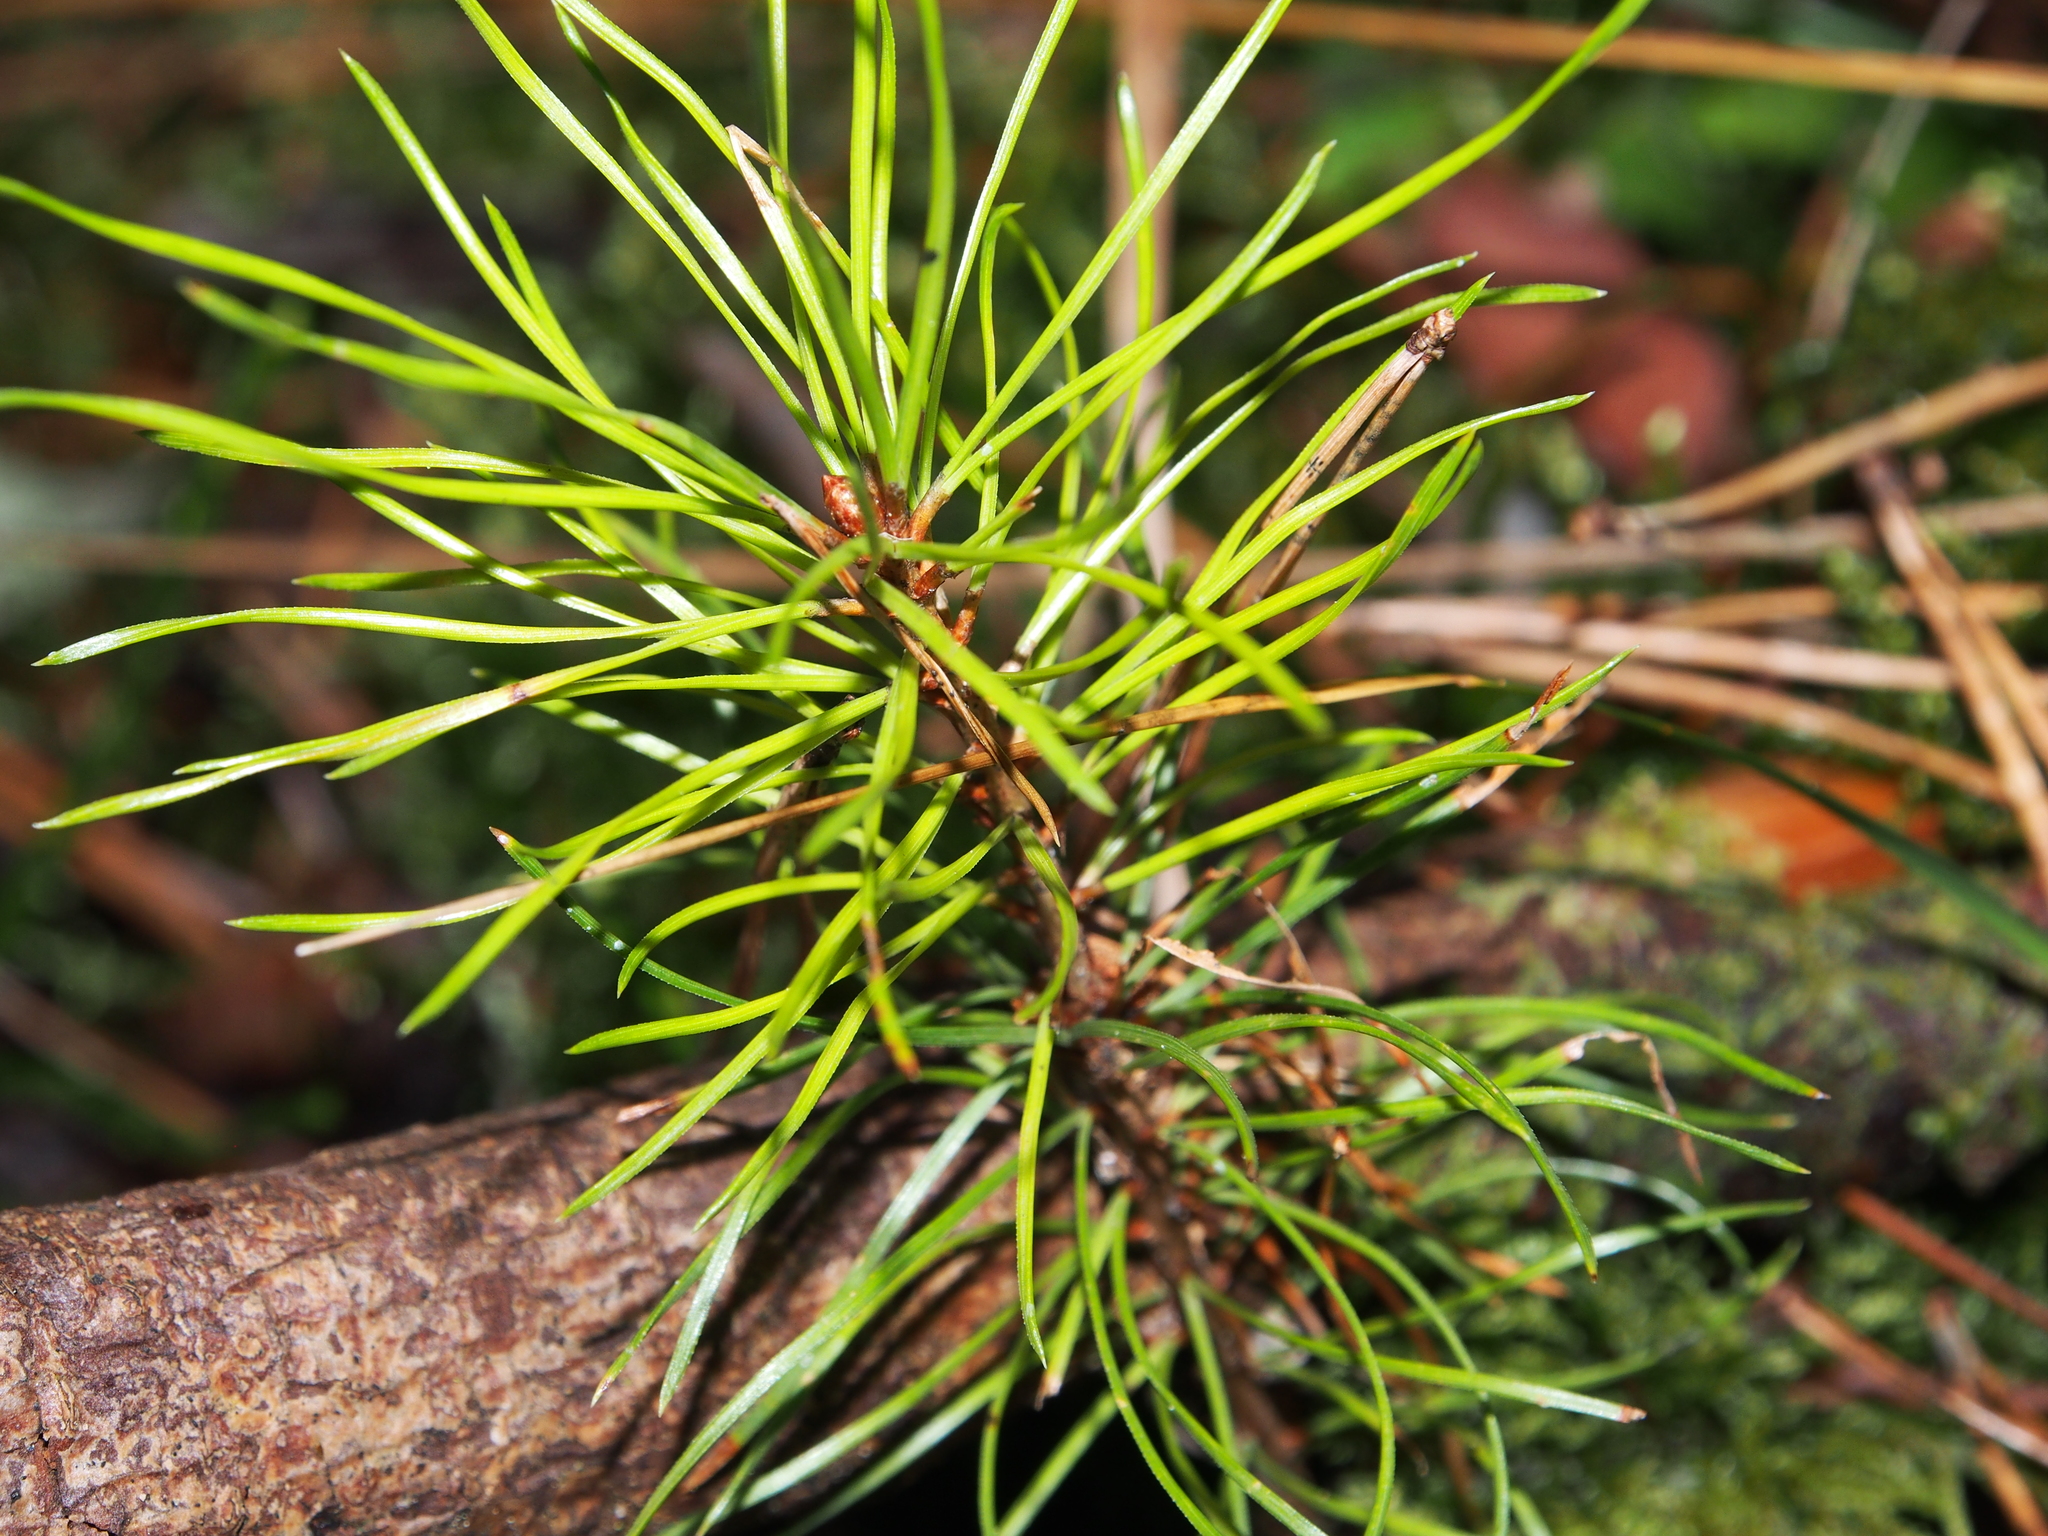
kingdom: Plantae
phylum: Tracheophyta
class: Pinopsida
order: Pinales
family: Pinaceae
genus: Pinus
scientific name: Pinus sylvestris
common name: Scots pine
